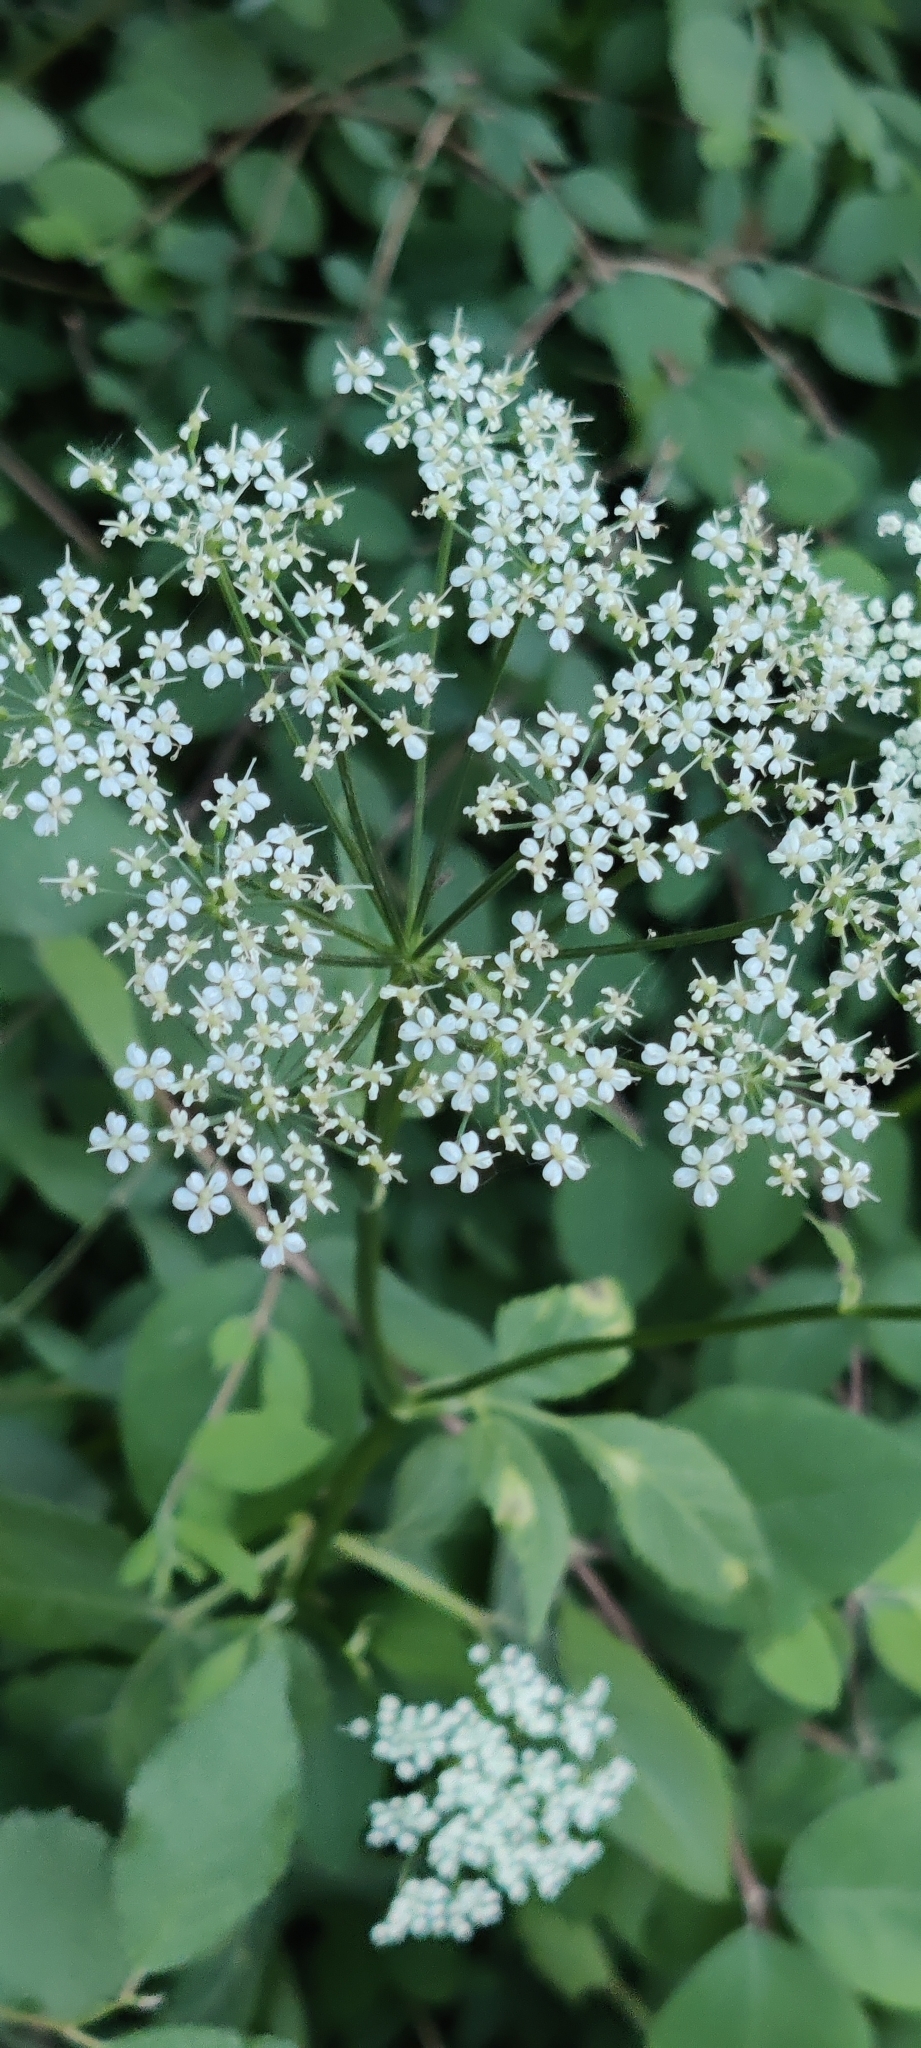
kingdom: Plantae
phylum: Tracheophyta
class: Magnoliopsida
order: Apiales
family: Apiaceae
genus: Aegopodium
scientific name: Aegopodium podagraria
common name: Ground-elder
